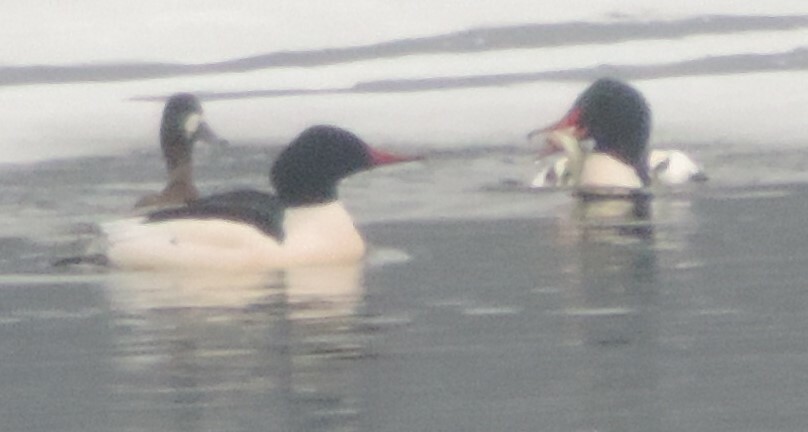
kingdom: Animalia
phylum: Chordata
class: Aves
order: Anseriformes
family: Anatidae
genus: Mergus
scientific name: Mergus merganser
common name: Common merganser
